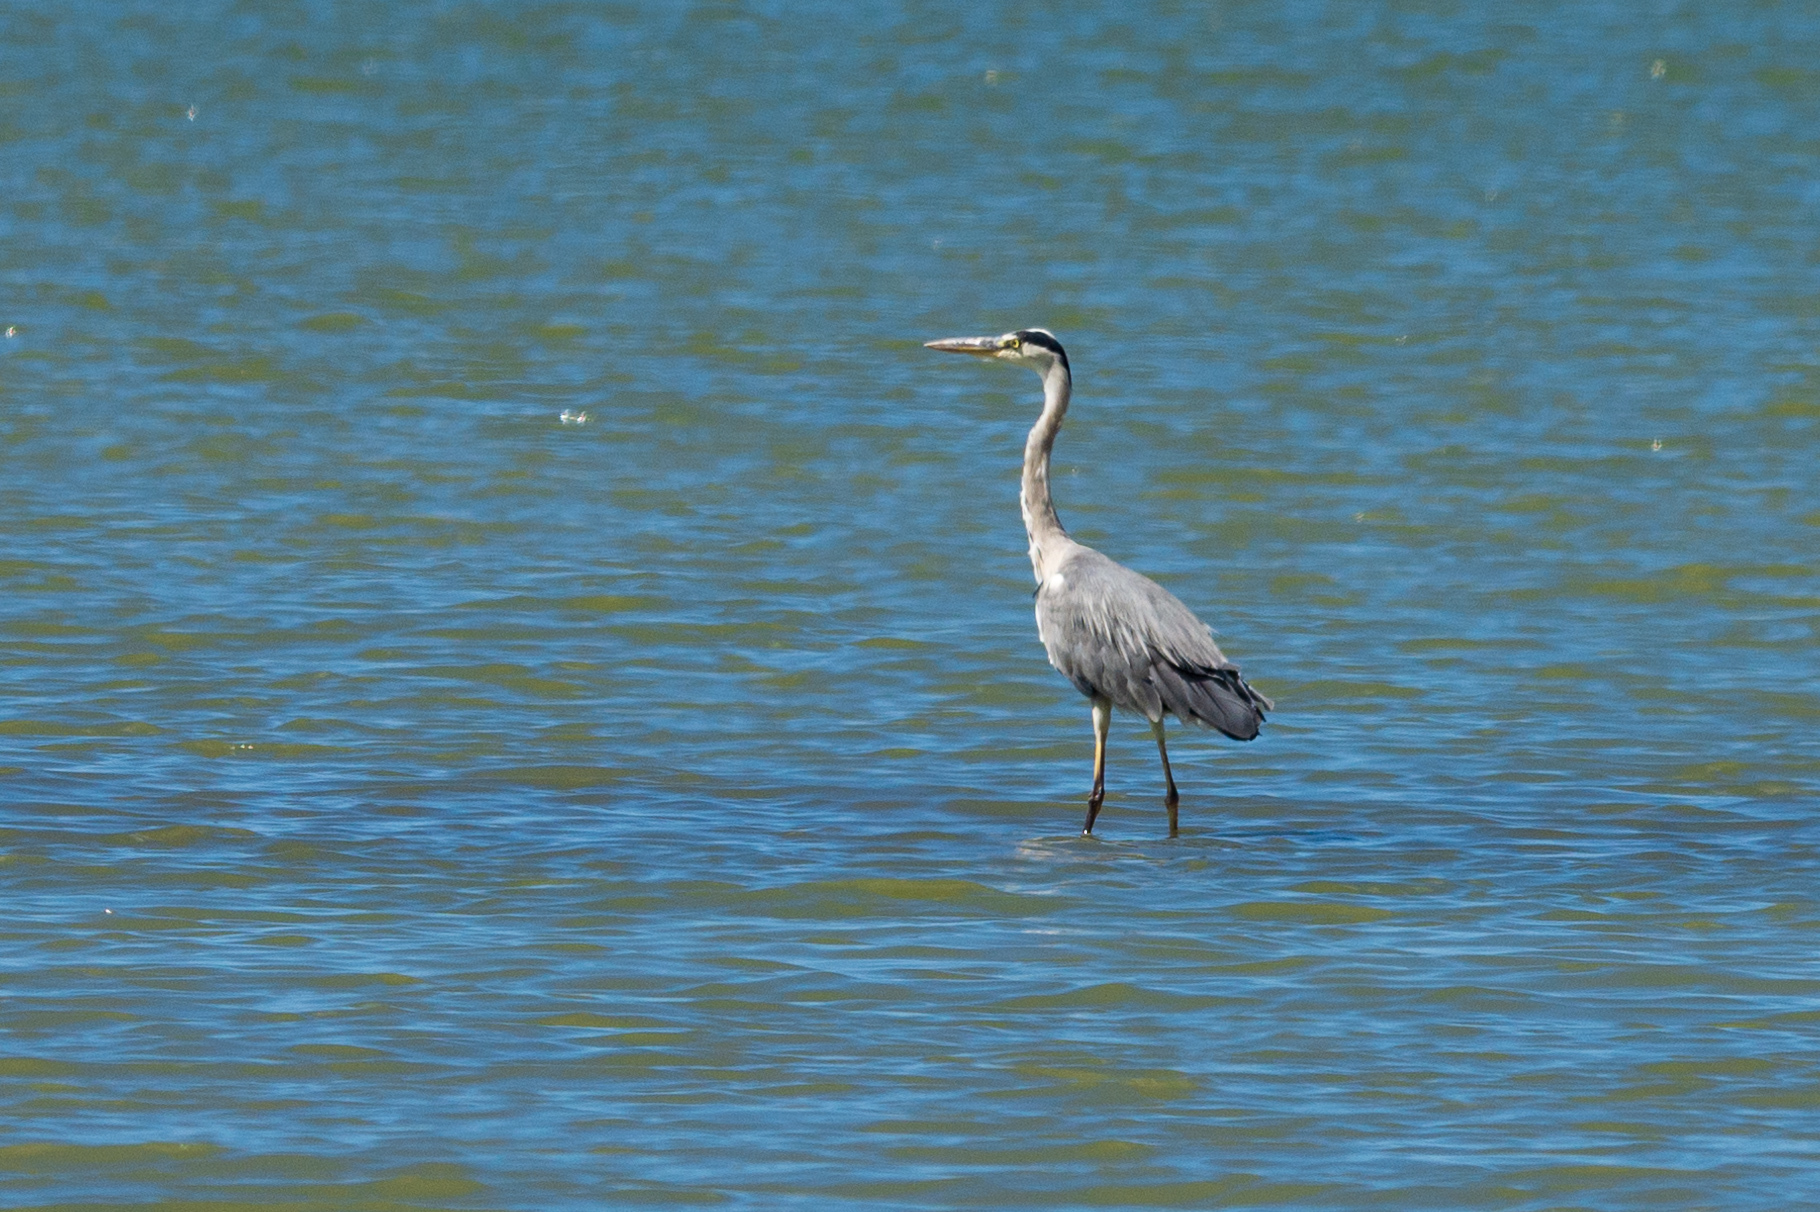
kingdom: Animalia
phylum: Chordata
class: Aves
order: Pelecaniformes
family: Ardeidae
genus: Ardea
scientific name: Ardea cinerea
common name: Grey heron
